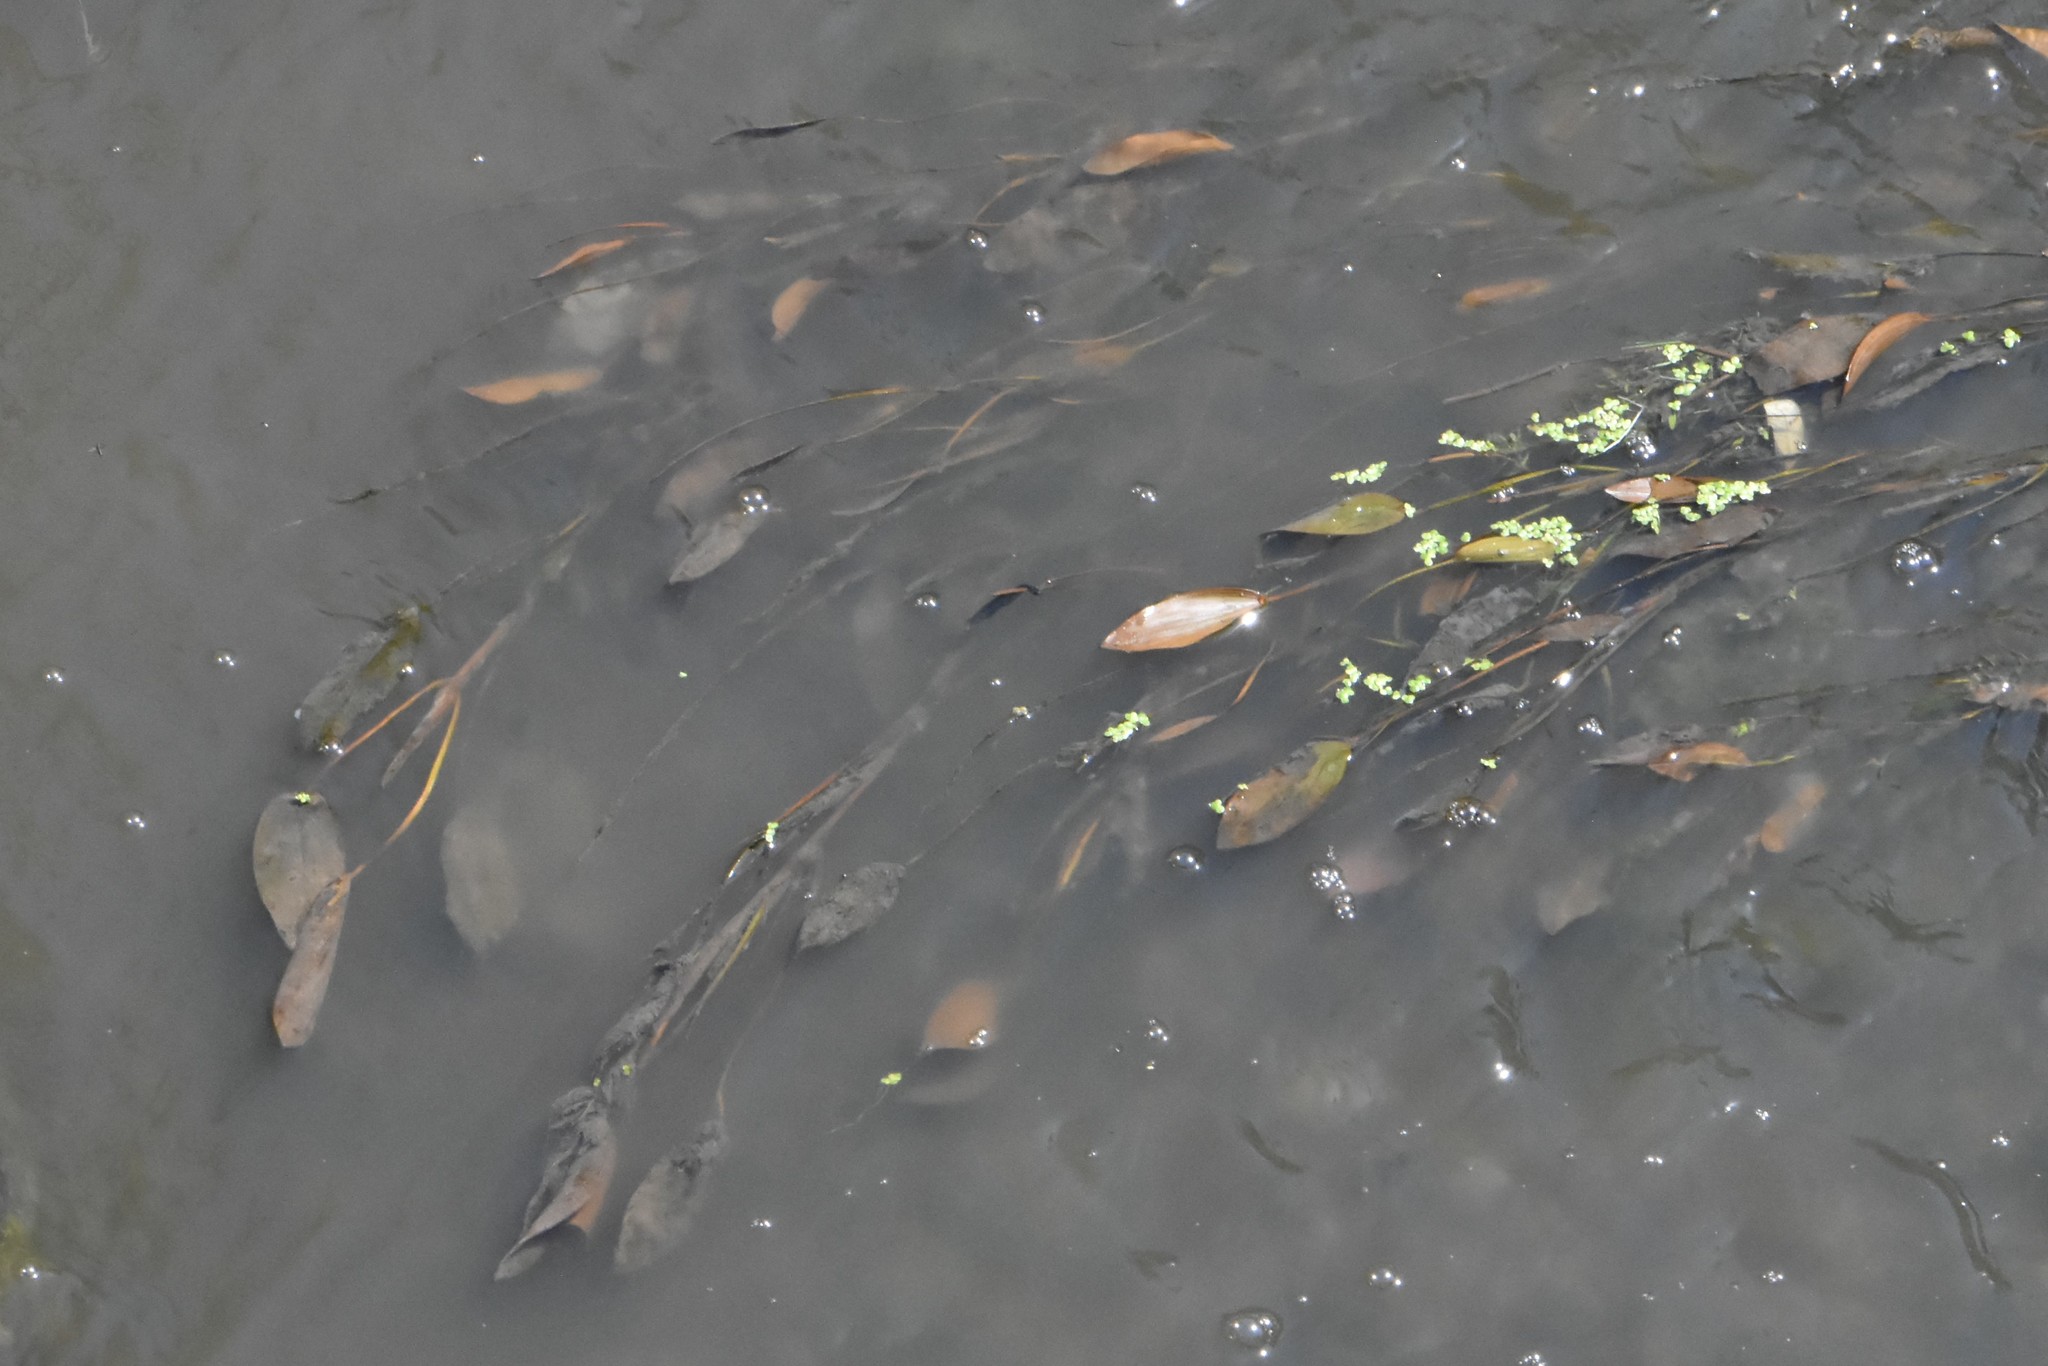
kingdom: Plantae
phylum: Tracheophyta
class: Liliopsida
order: Alismatales
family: Potamogetonaceae
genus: Potamogeton
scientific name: Potamogeton nodosus
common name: Loddon pondweed
